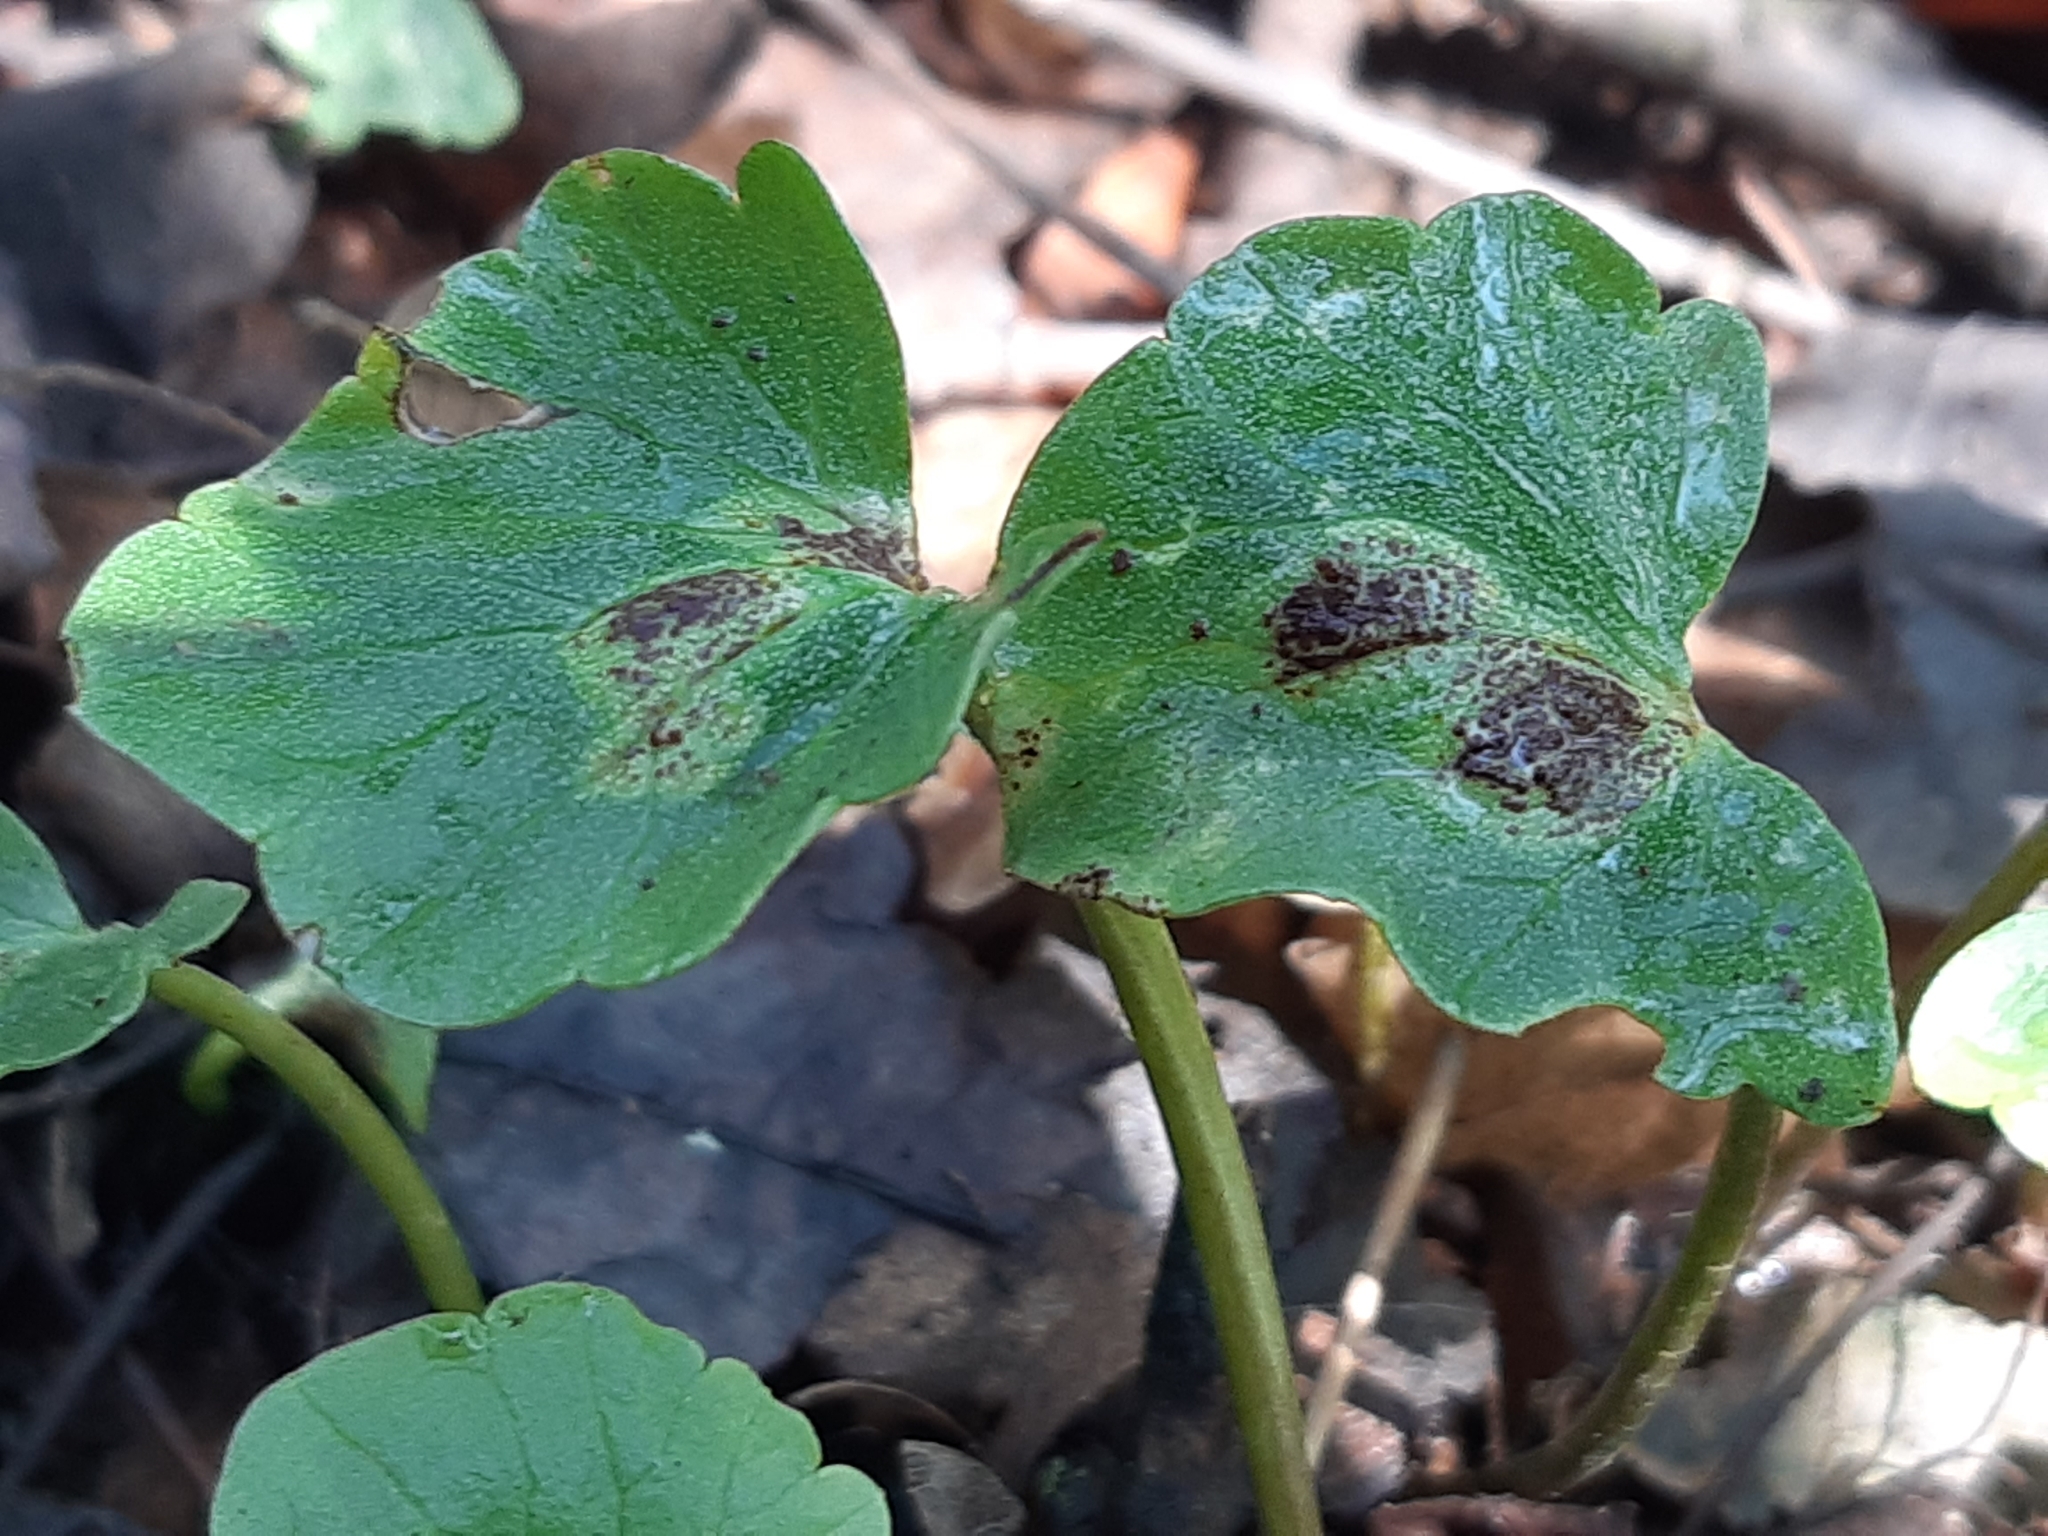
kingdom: Fungi
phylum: Basidiomycota
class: Pucciniomycetes
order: Pucciniales
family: Pucciniaceae
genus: Uromyces
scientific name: Uromyces ficariae
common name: Bitter chocolate rust
